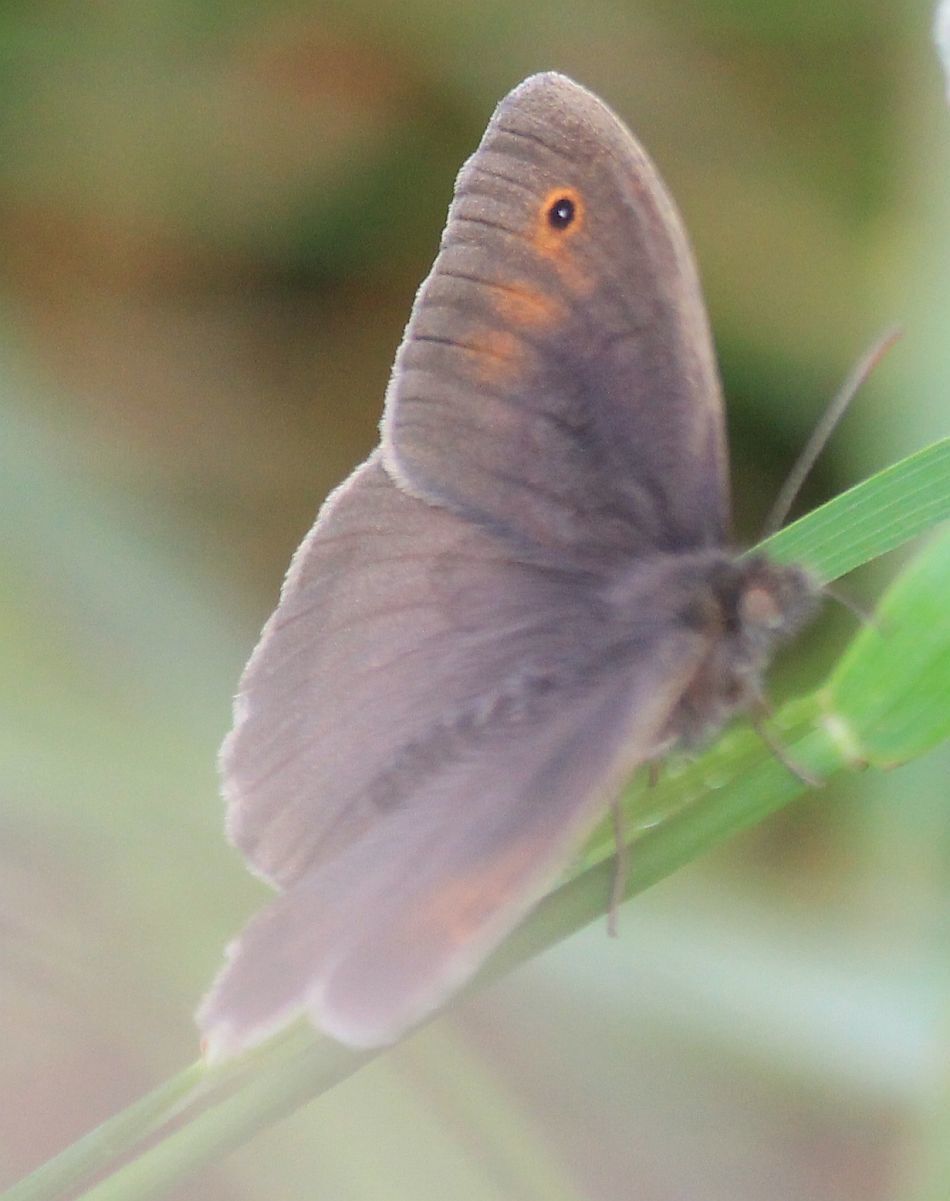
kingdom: Animalia
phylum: Arthropoda
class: Insecta
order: Lepidoptera
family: Nymphalidae
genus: Maniola
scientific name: Maniola jurtina
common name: Meadow brown
